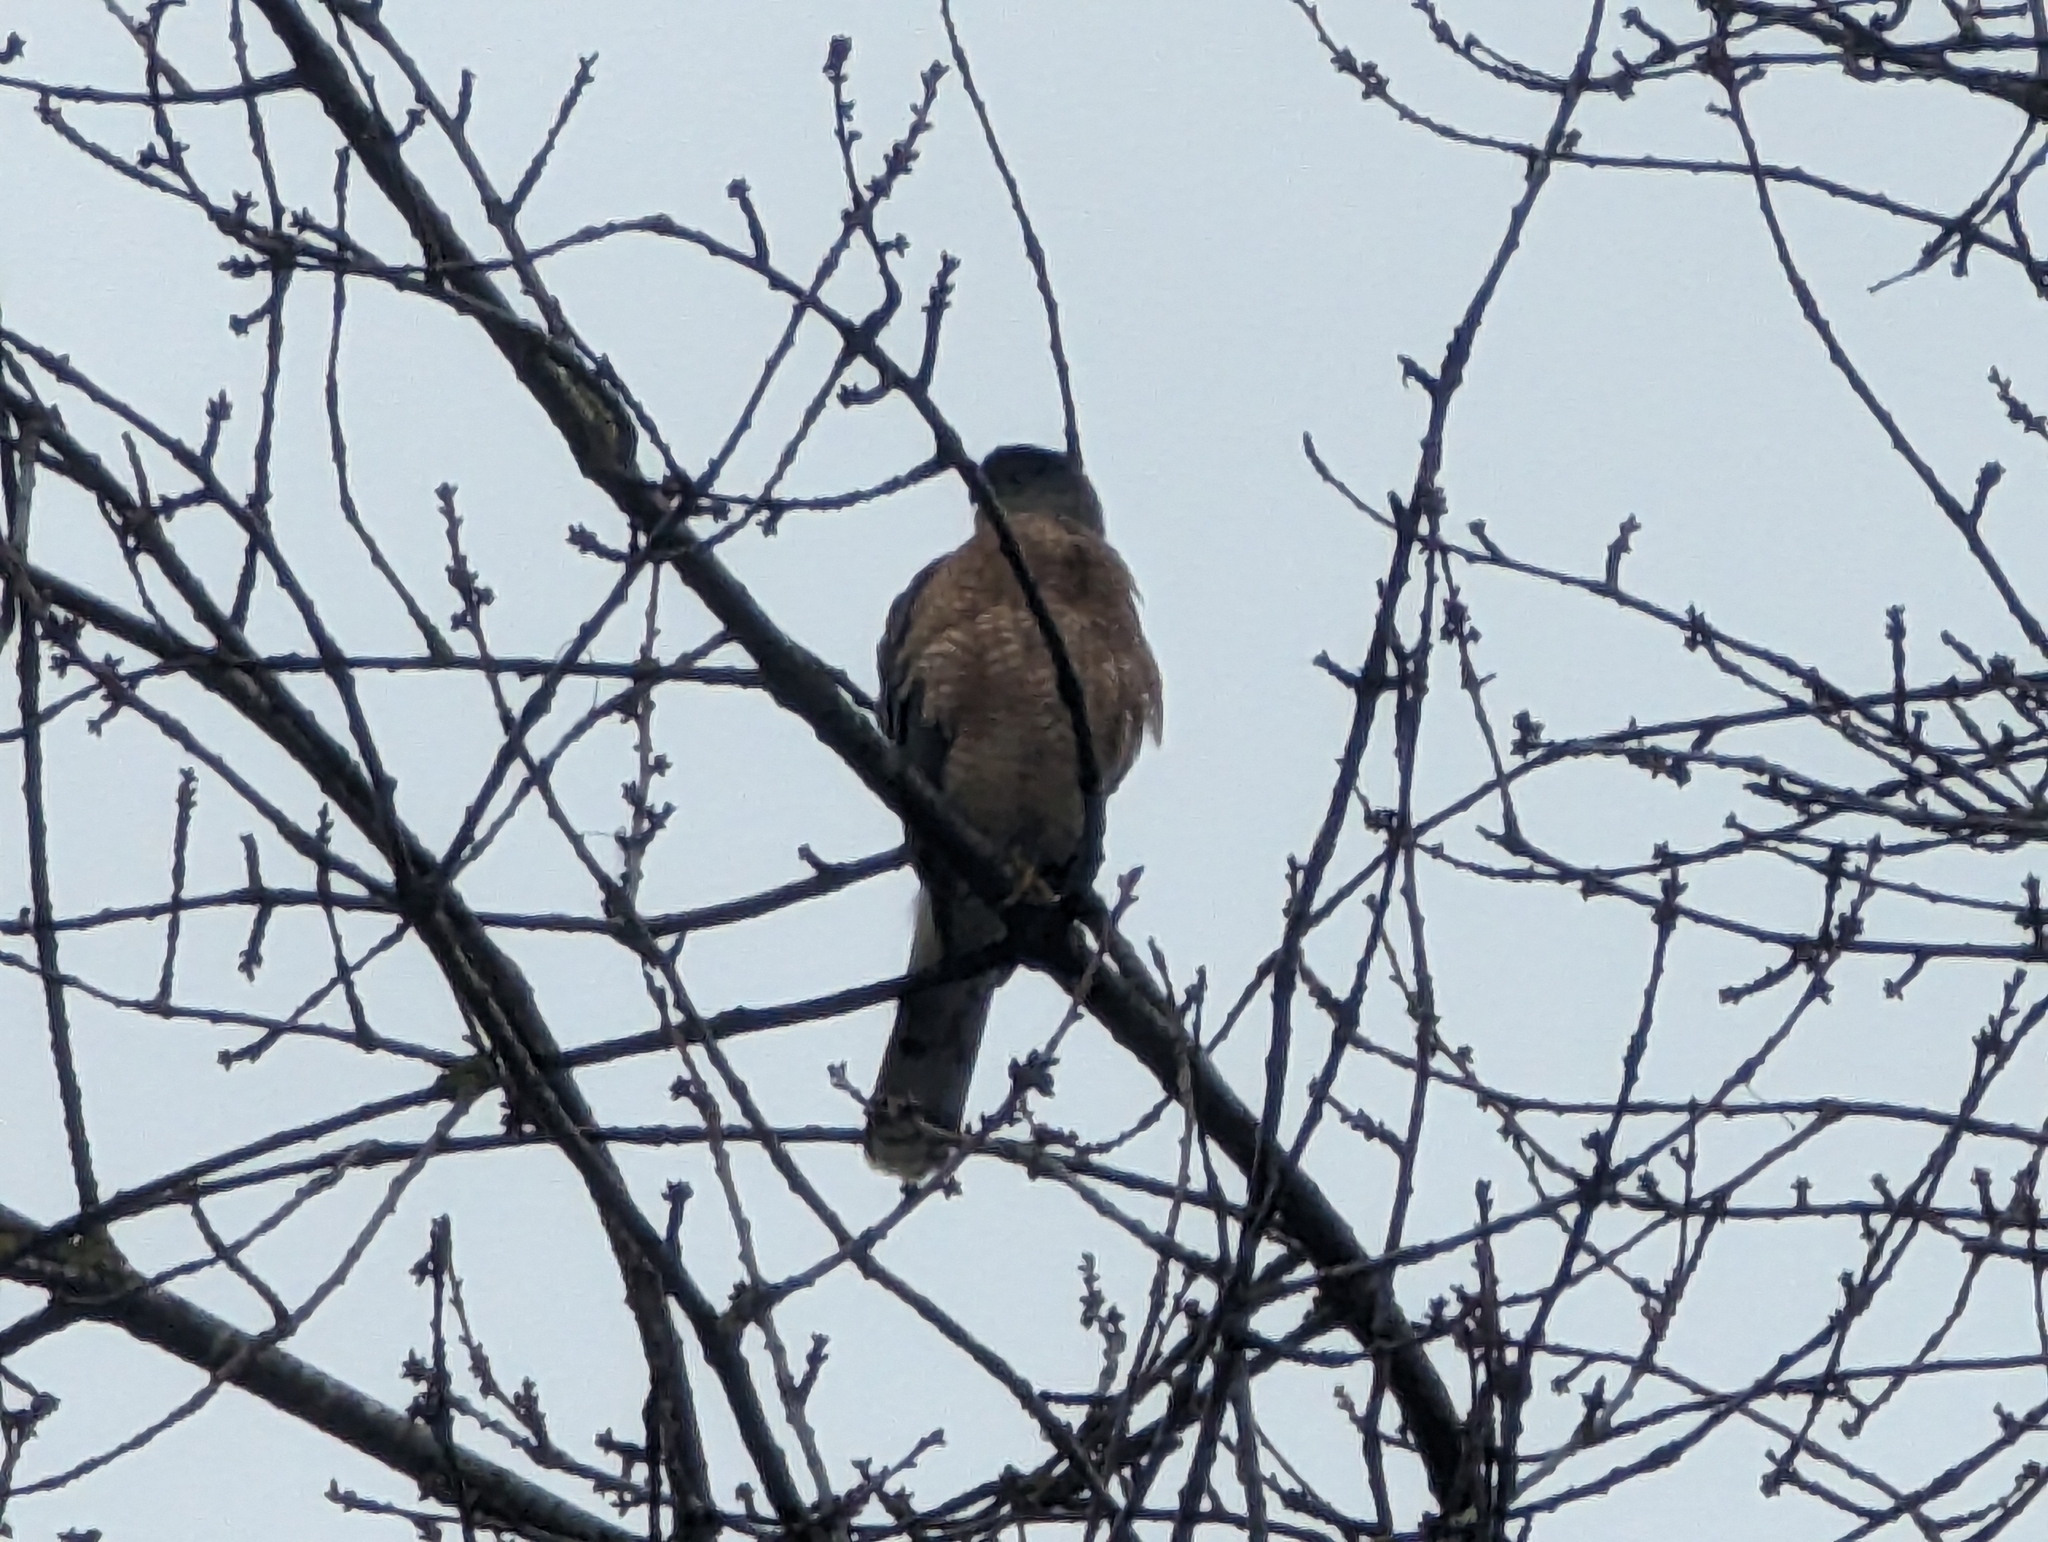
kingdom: Animalia
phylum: Chordata
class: Aves
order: Accipitriformes
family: Accipitridae
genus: Accipiter
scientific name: Accipiter cooperii
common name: Cooper's hawk
